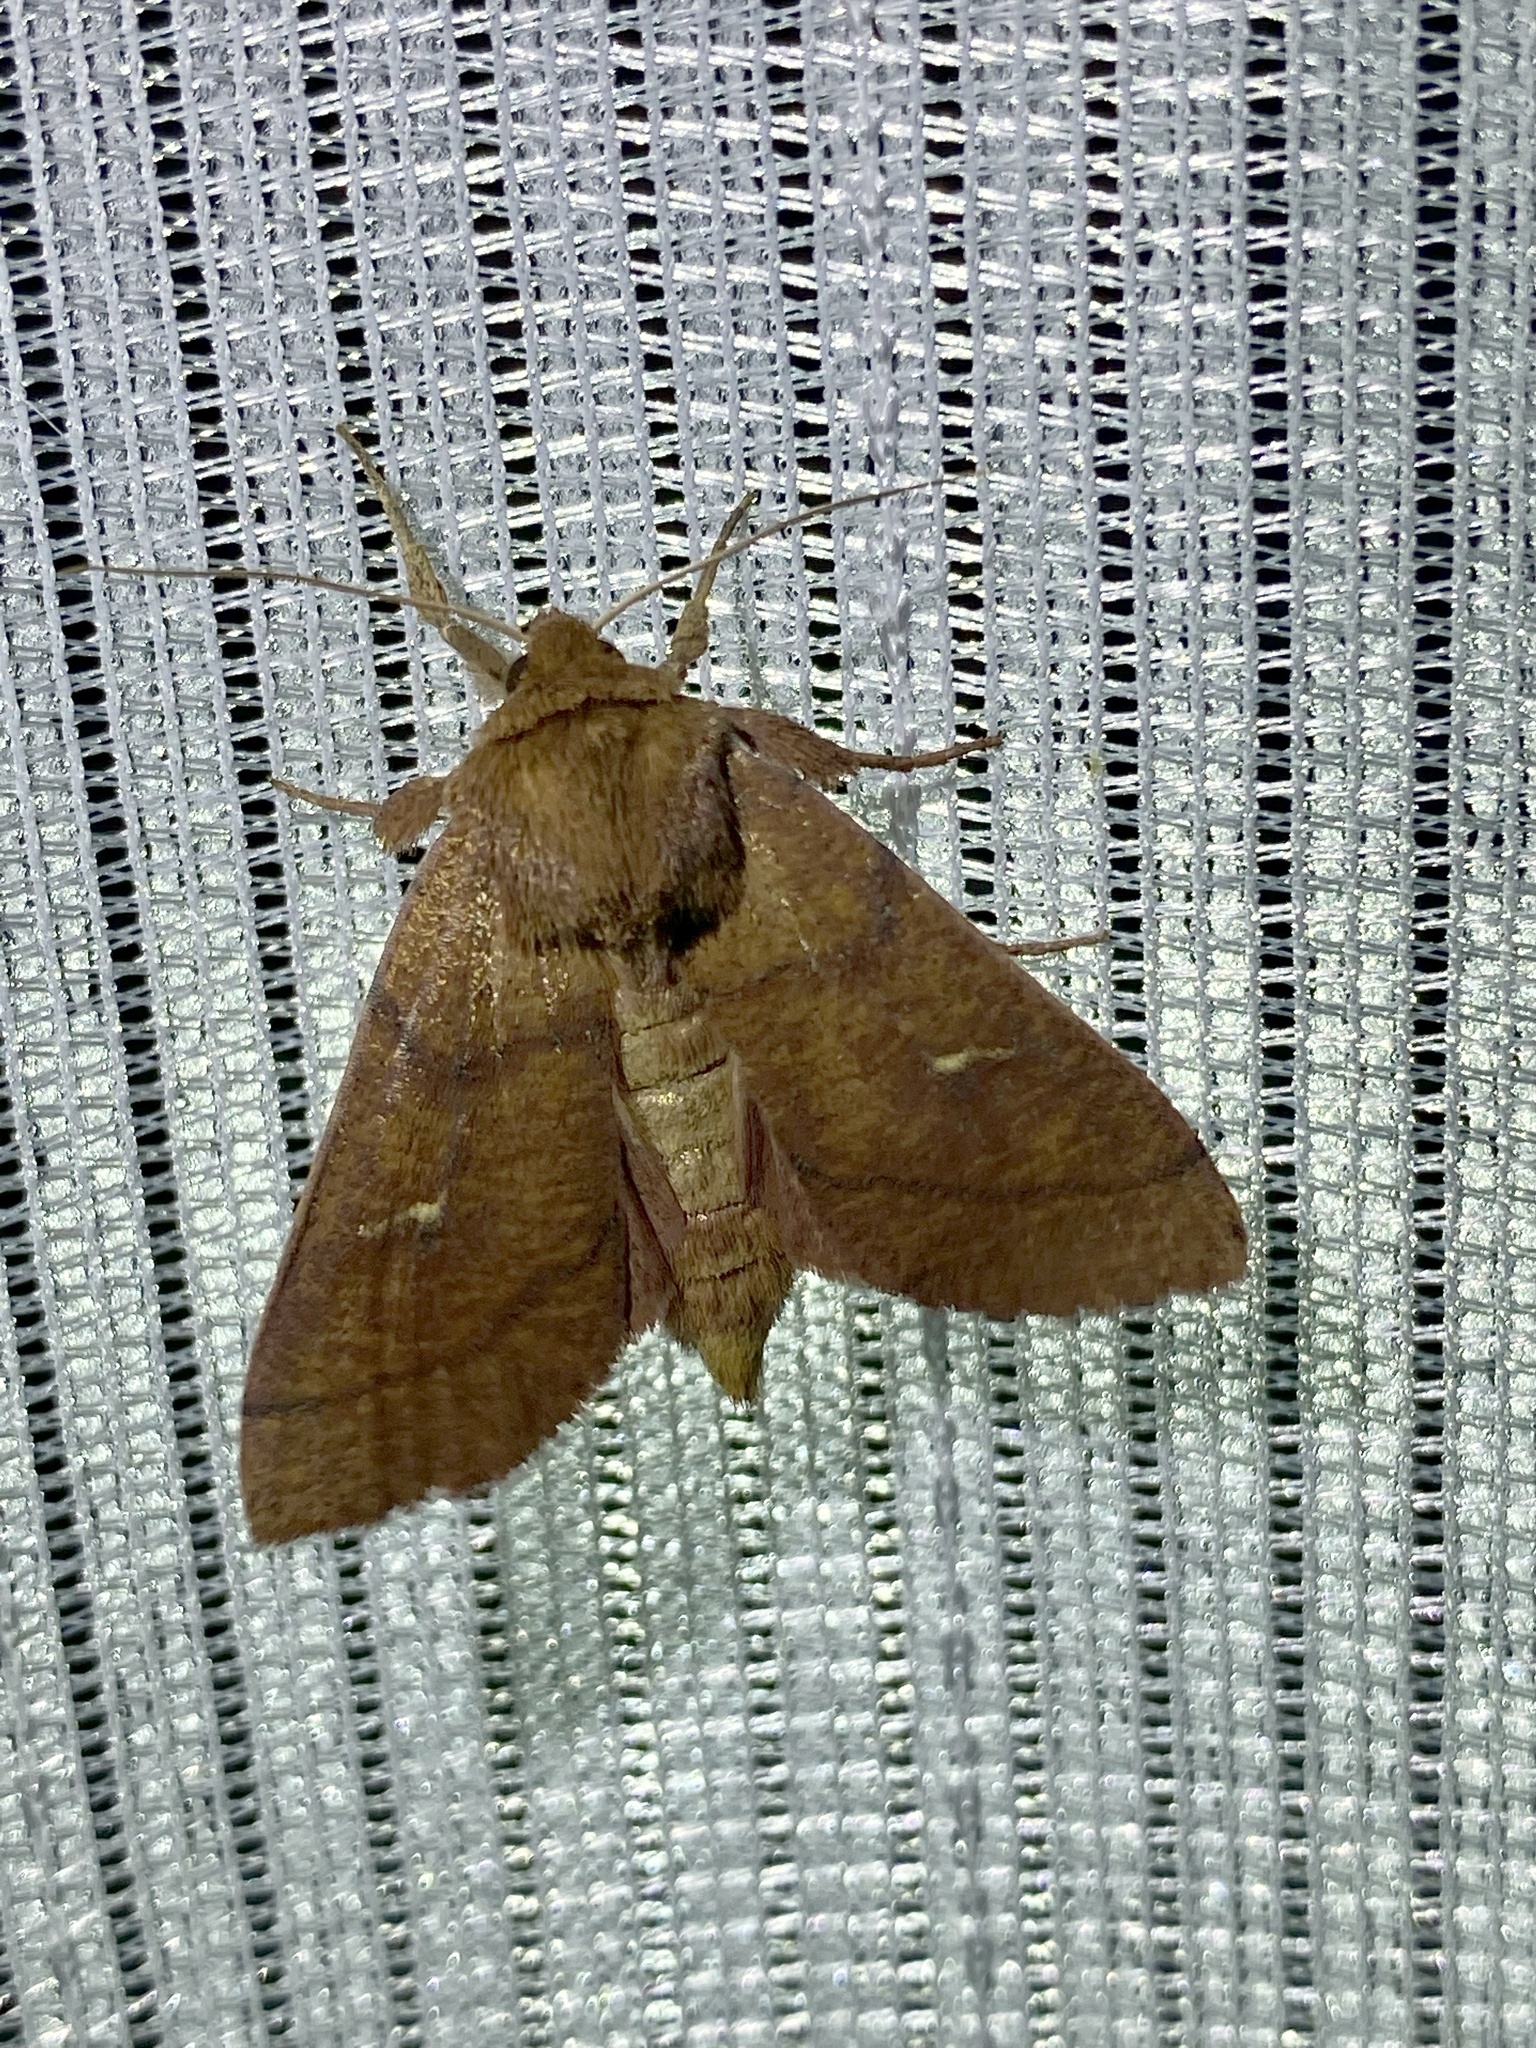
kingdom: Animalia
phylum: Arthropoda
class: Insecta
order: Lepidoptera
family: Noctuidae
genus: Mythimna
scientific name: Mythimna turca
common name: Double line
